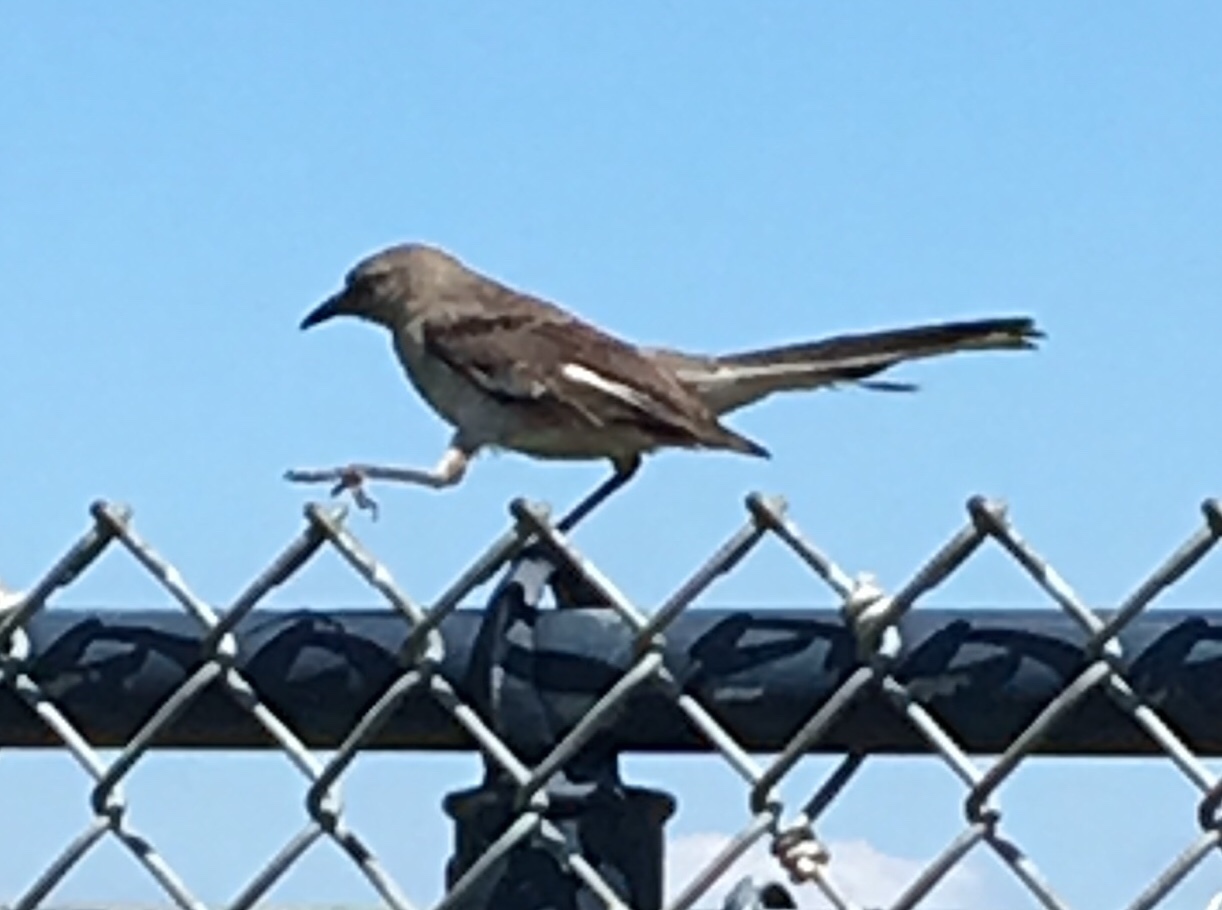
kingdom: Animalia
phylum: Chordata
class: Aves
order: Passeriformes
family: Mimidae
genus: Mimus
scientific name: Mimus polyglottos
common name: Northern mockingbird
